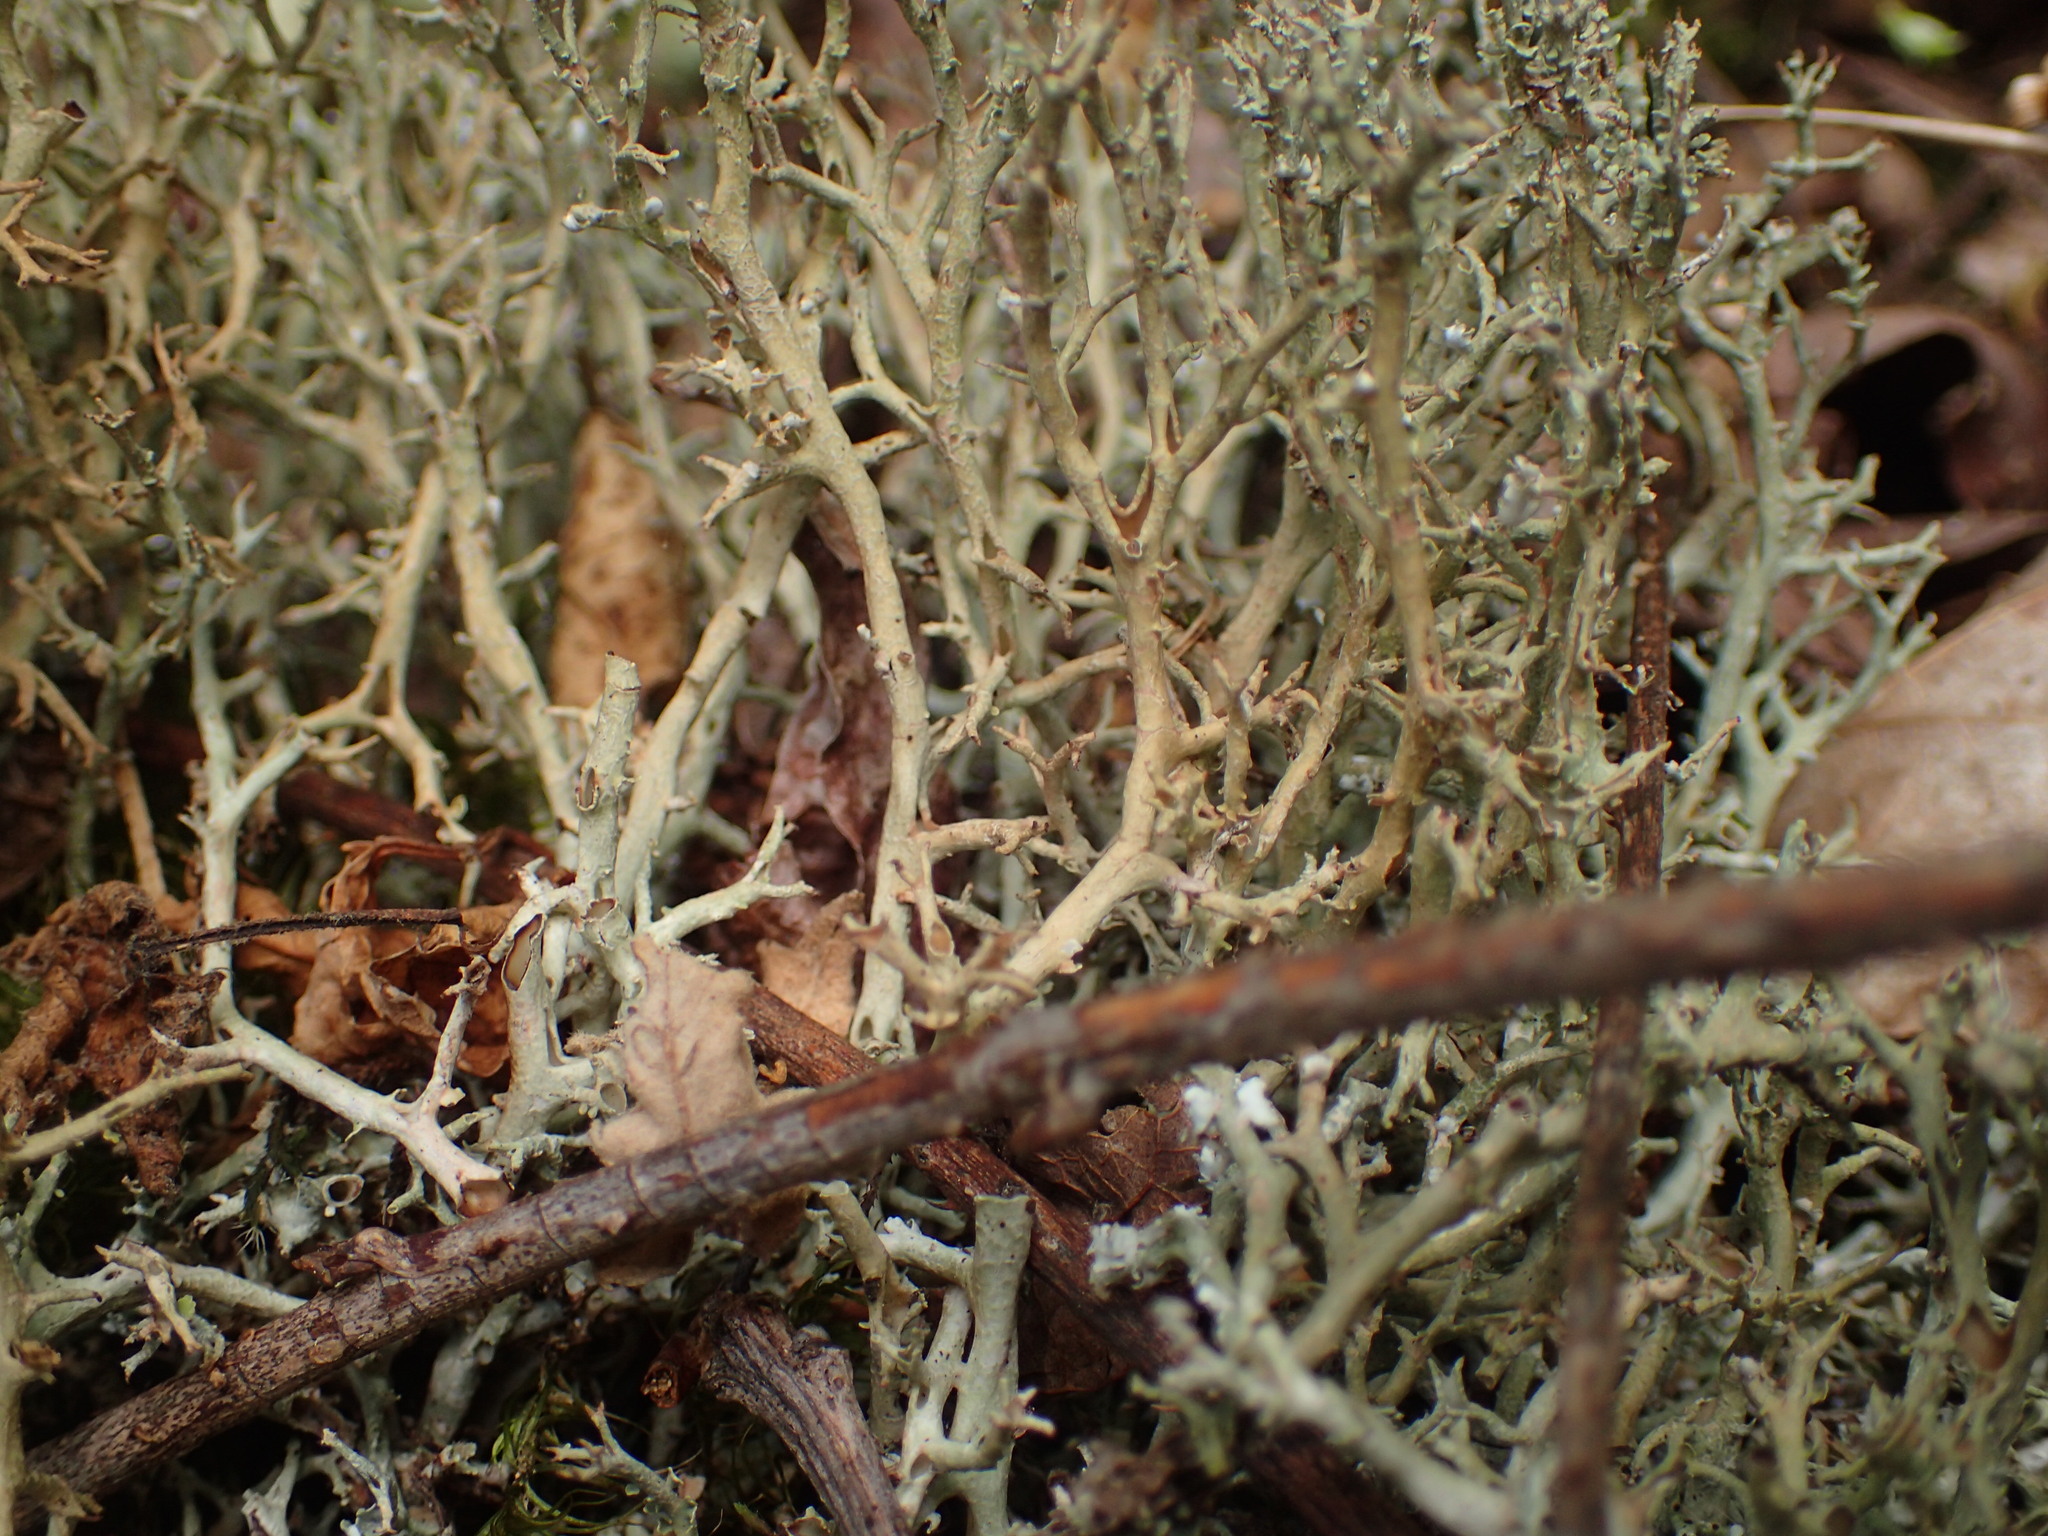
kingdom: Fungi
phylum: Ascomycota
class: Lecanoromycetes
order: Lecanorales
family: Cladoniaceae
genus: Cladonia
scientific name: Cladonia furcata
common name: Many-forked cladonia
